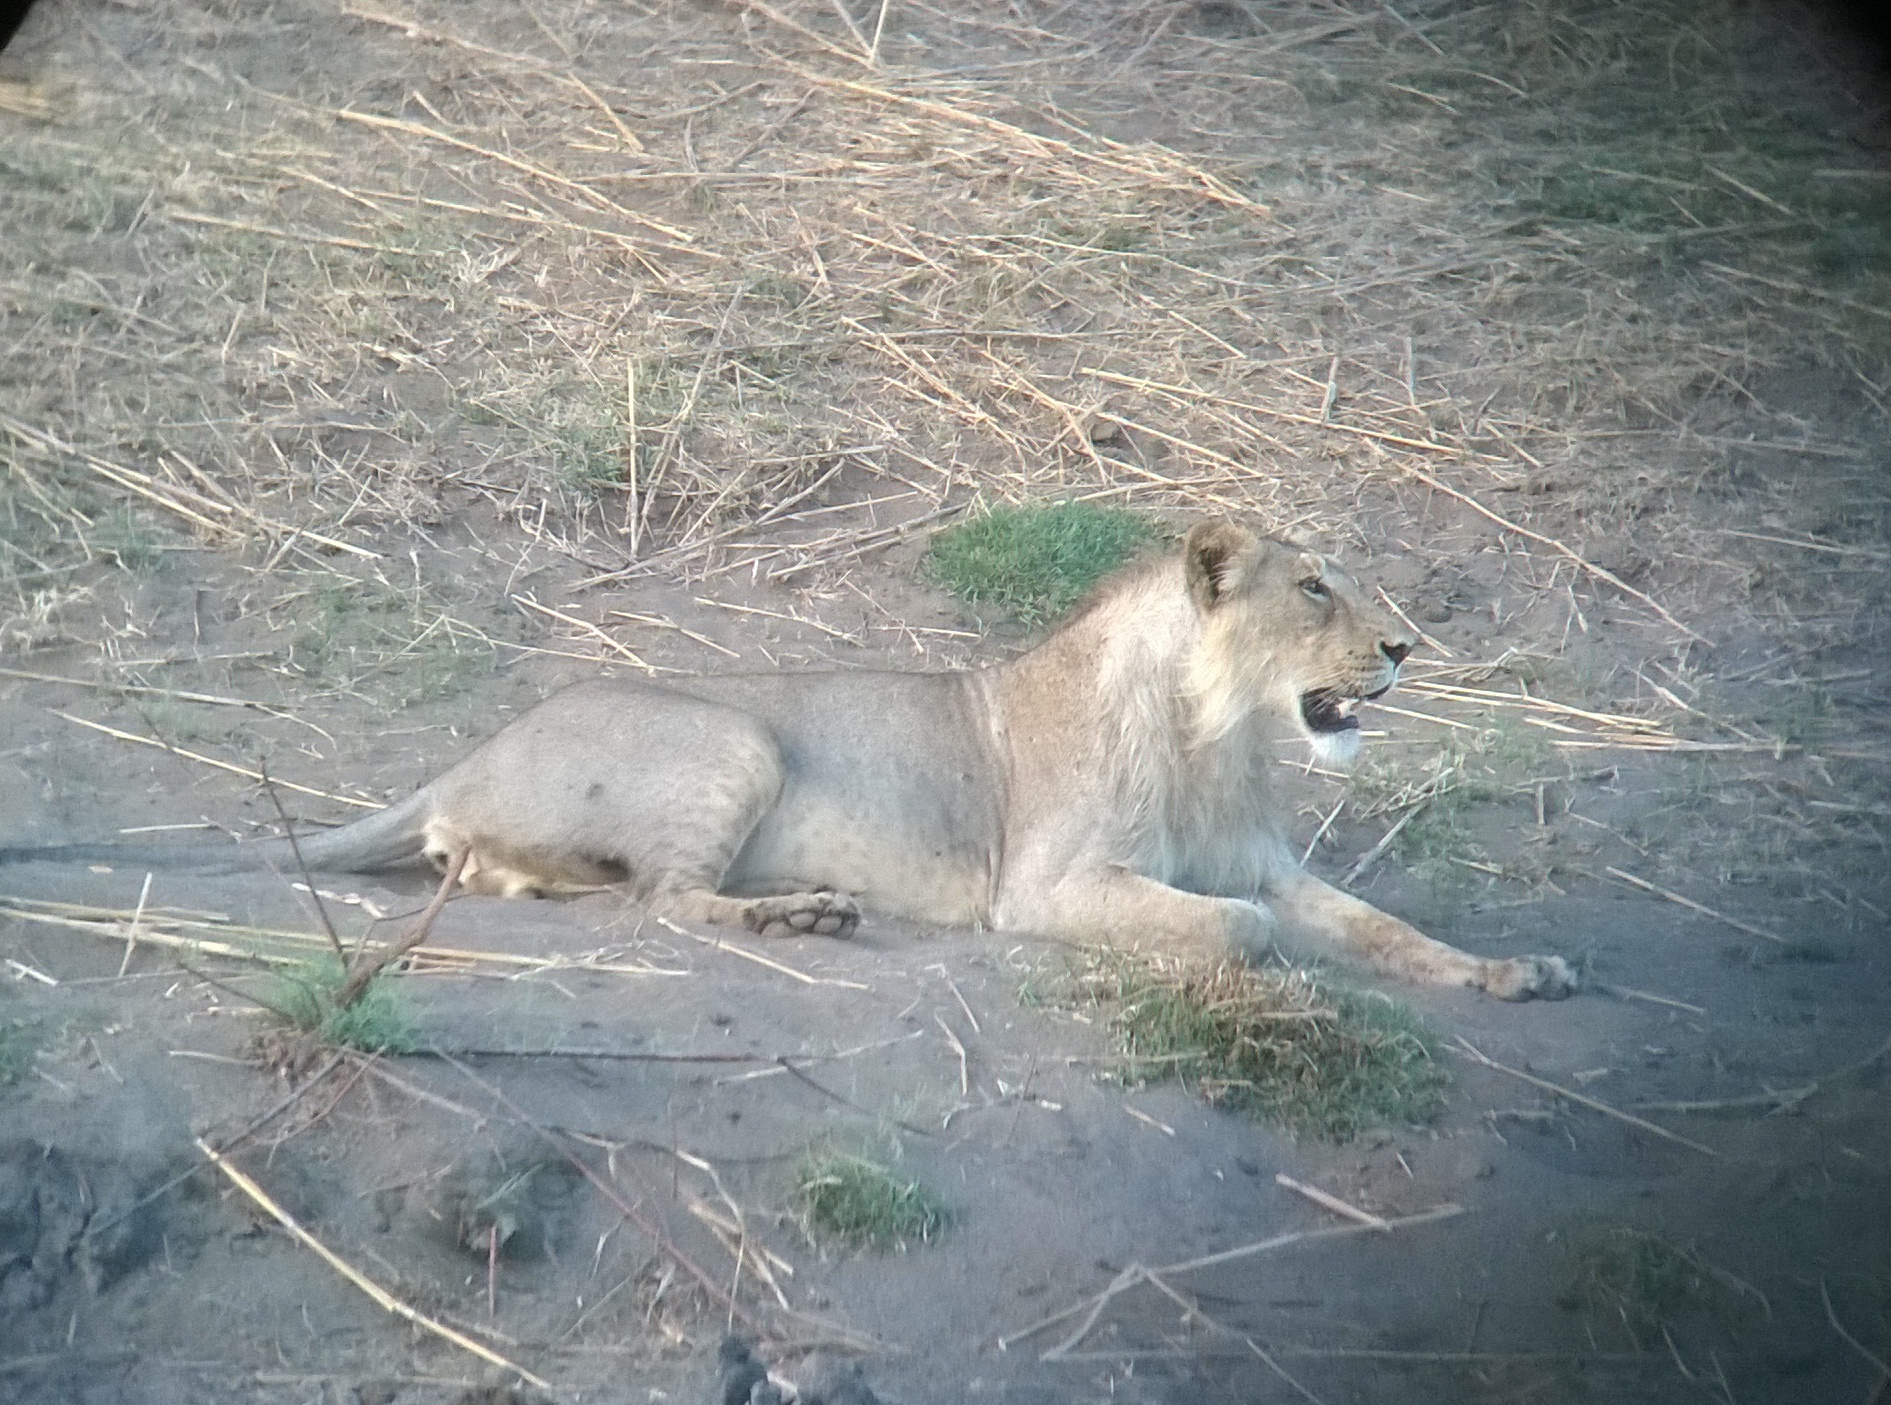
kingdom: Animalia
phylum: Chordata
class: Mammalia
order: Carnivora
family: Felidae
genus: Panthera
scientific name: Panthera leo
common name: Lion
